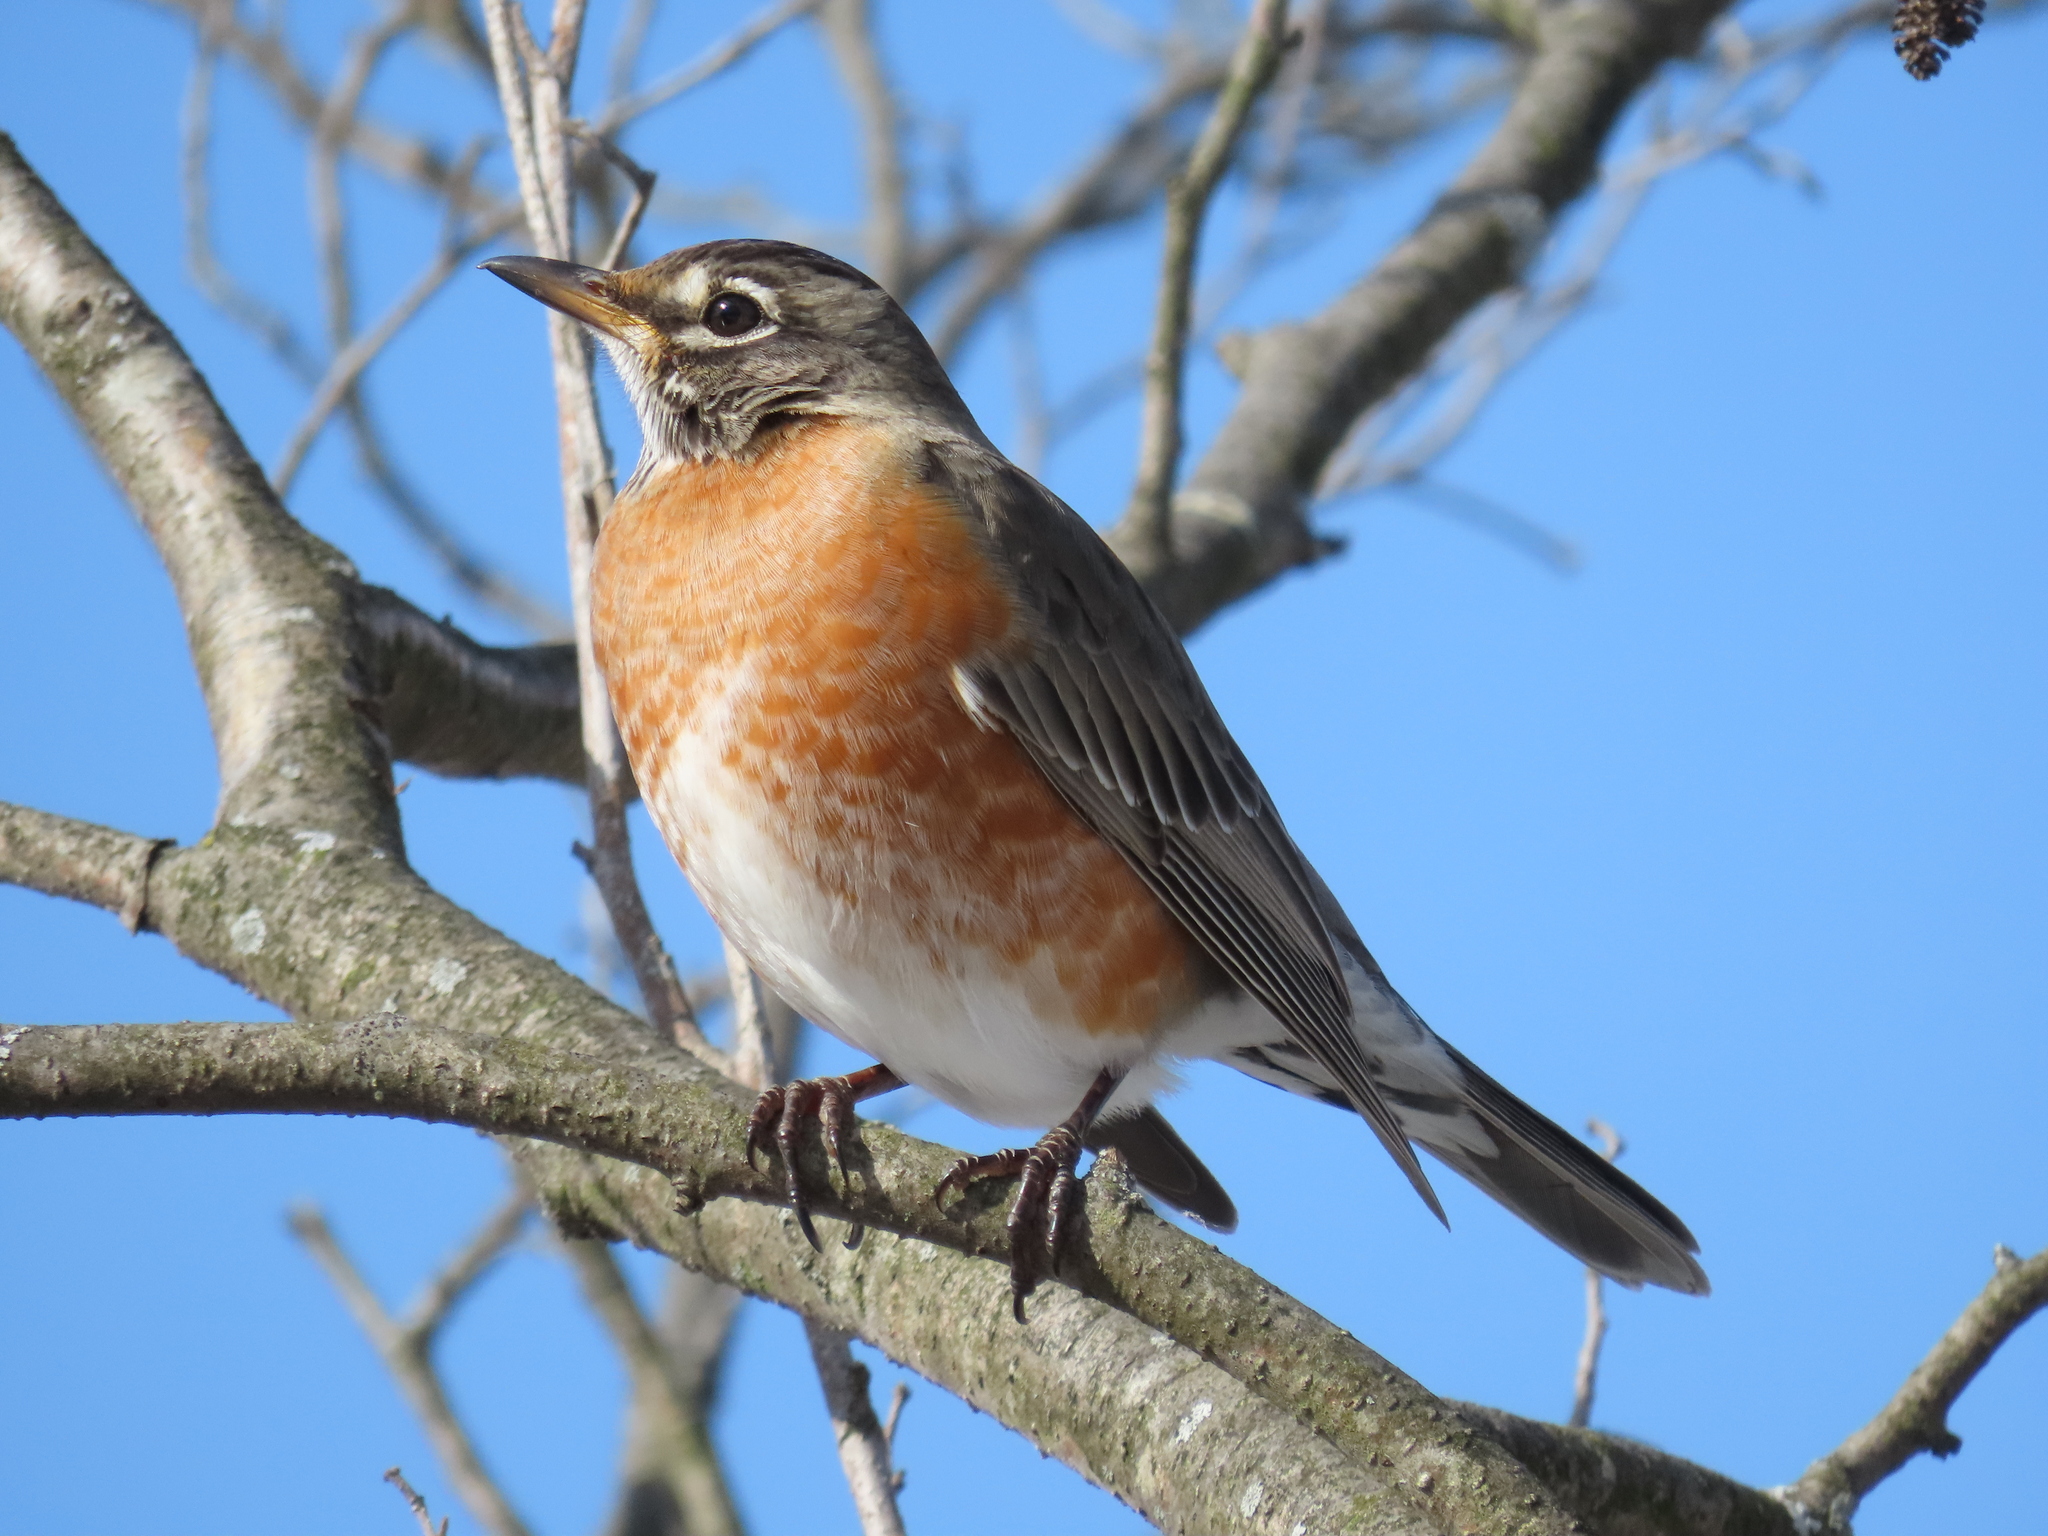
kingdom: Animalia
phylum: Chordata
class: Aves
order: Passeriformes
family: Turdidae
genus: Turdus
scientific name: Turdus migratorius
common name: American robin
